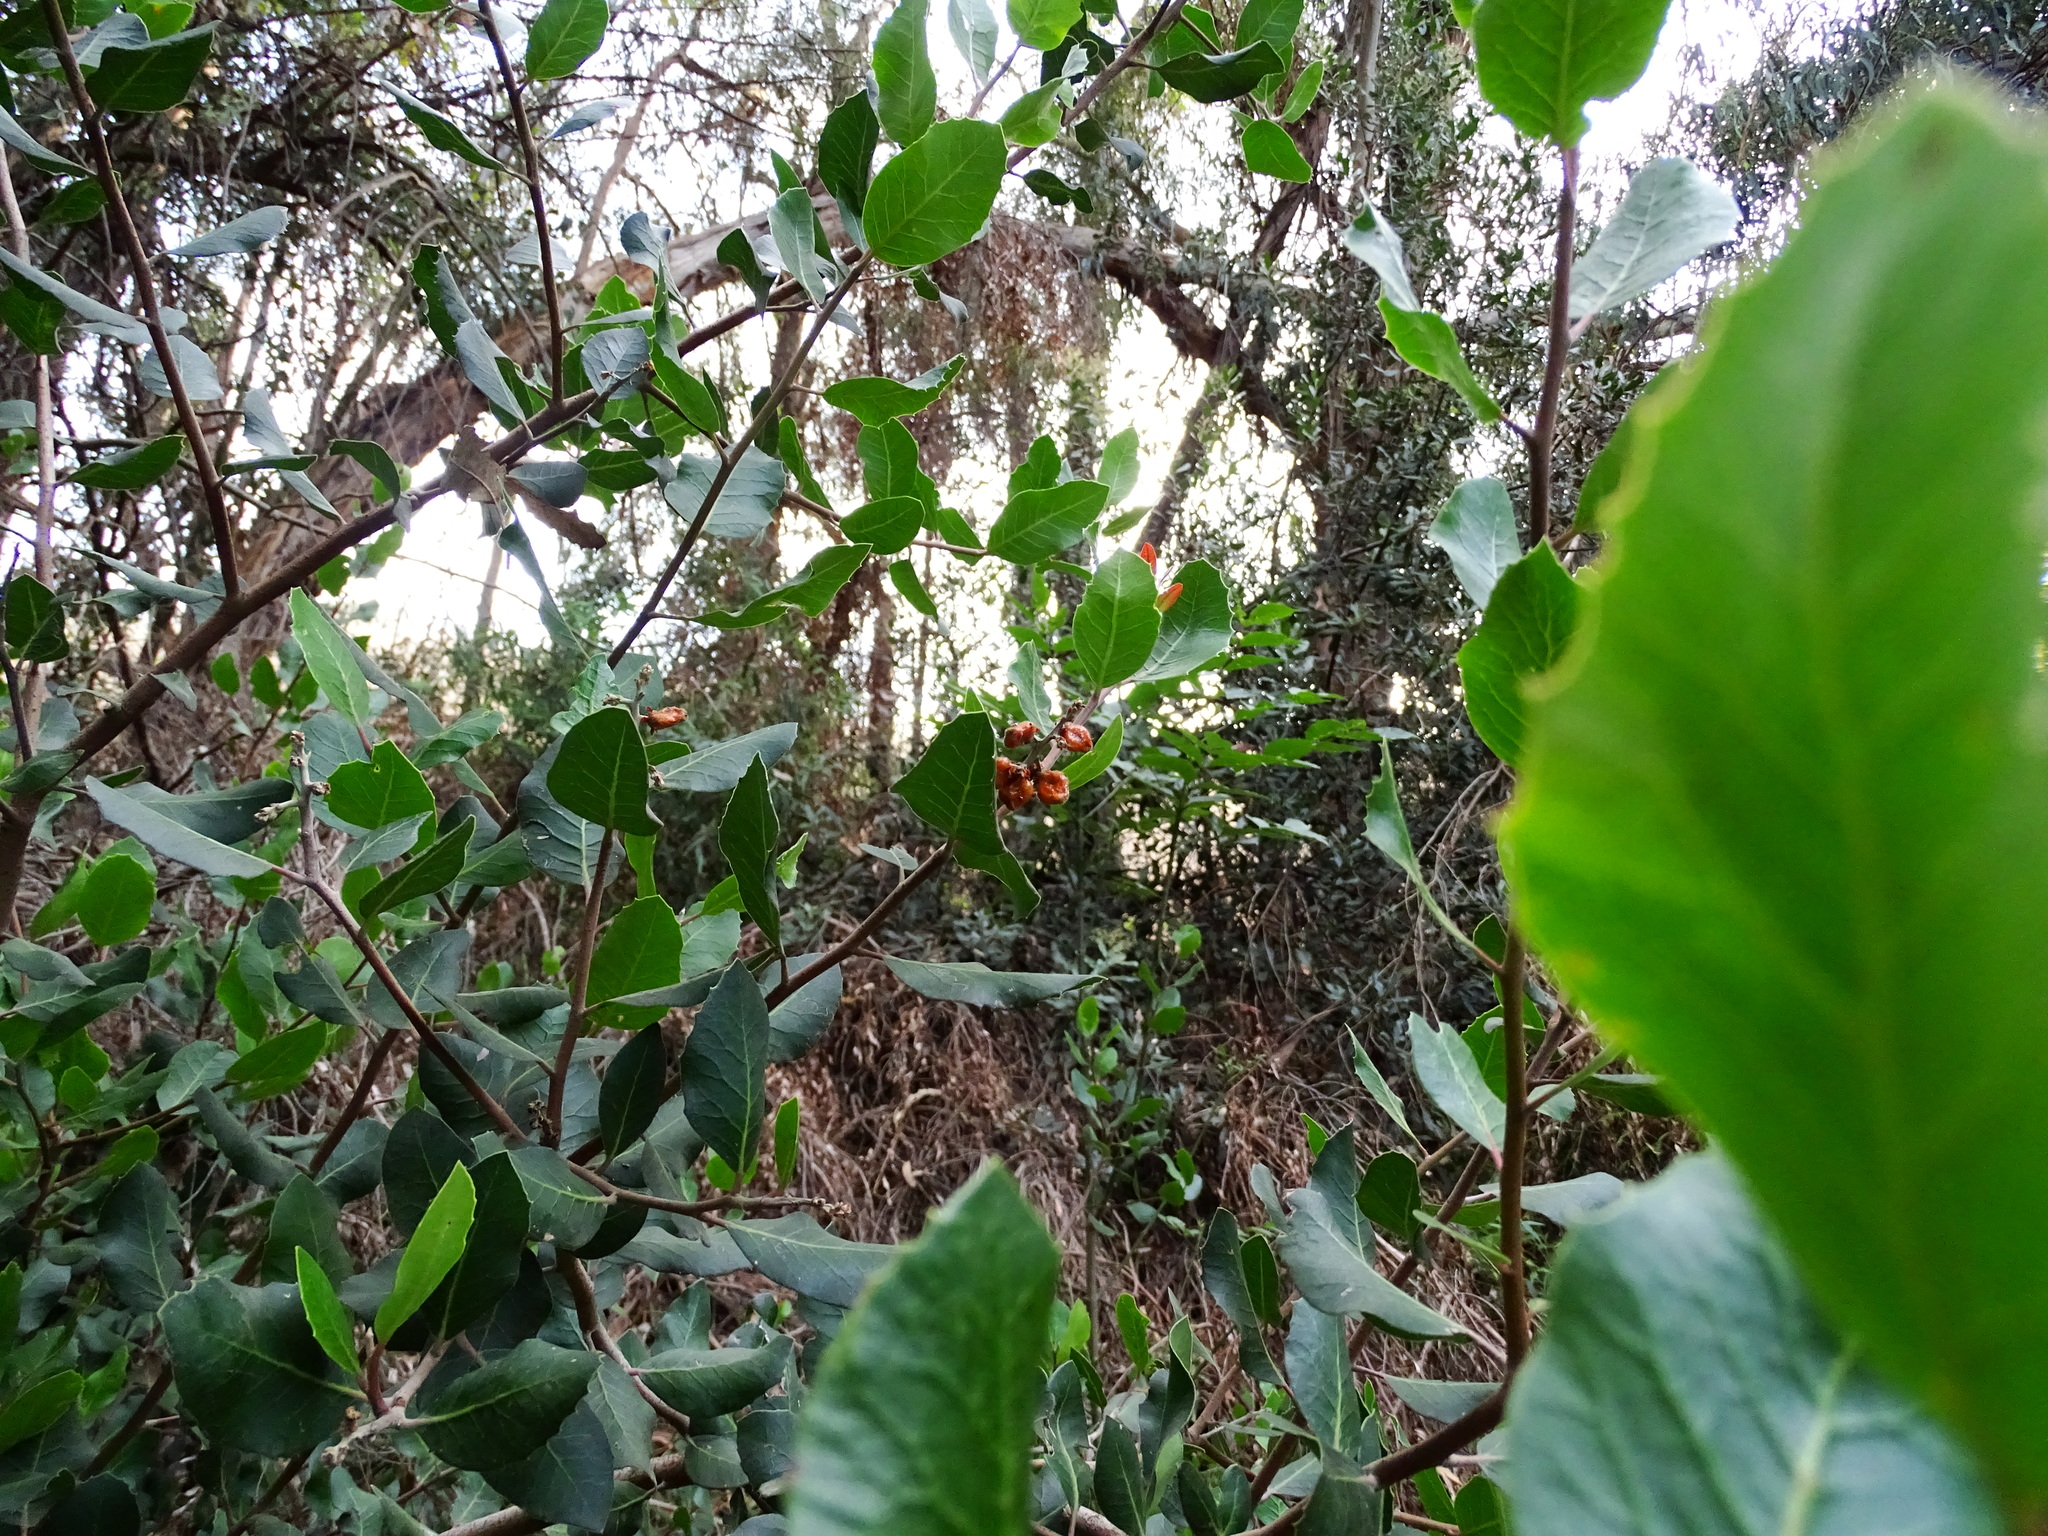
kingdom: Plantae
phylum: Tracheophyta
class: Magnoliopsida
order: Sapindales
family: Anacardiaceae
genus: Rhus
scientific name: Rhus integrifolia
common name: Lemonade sumac
